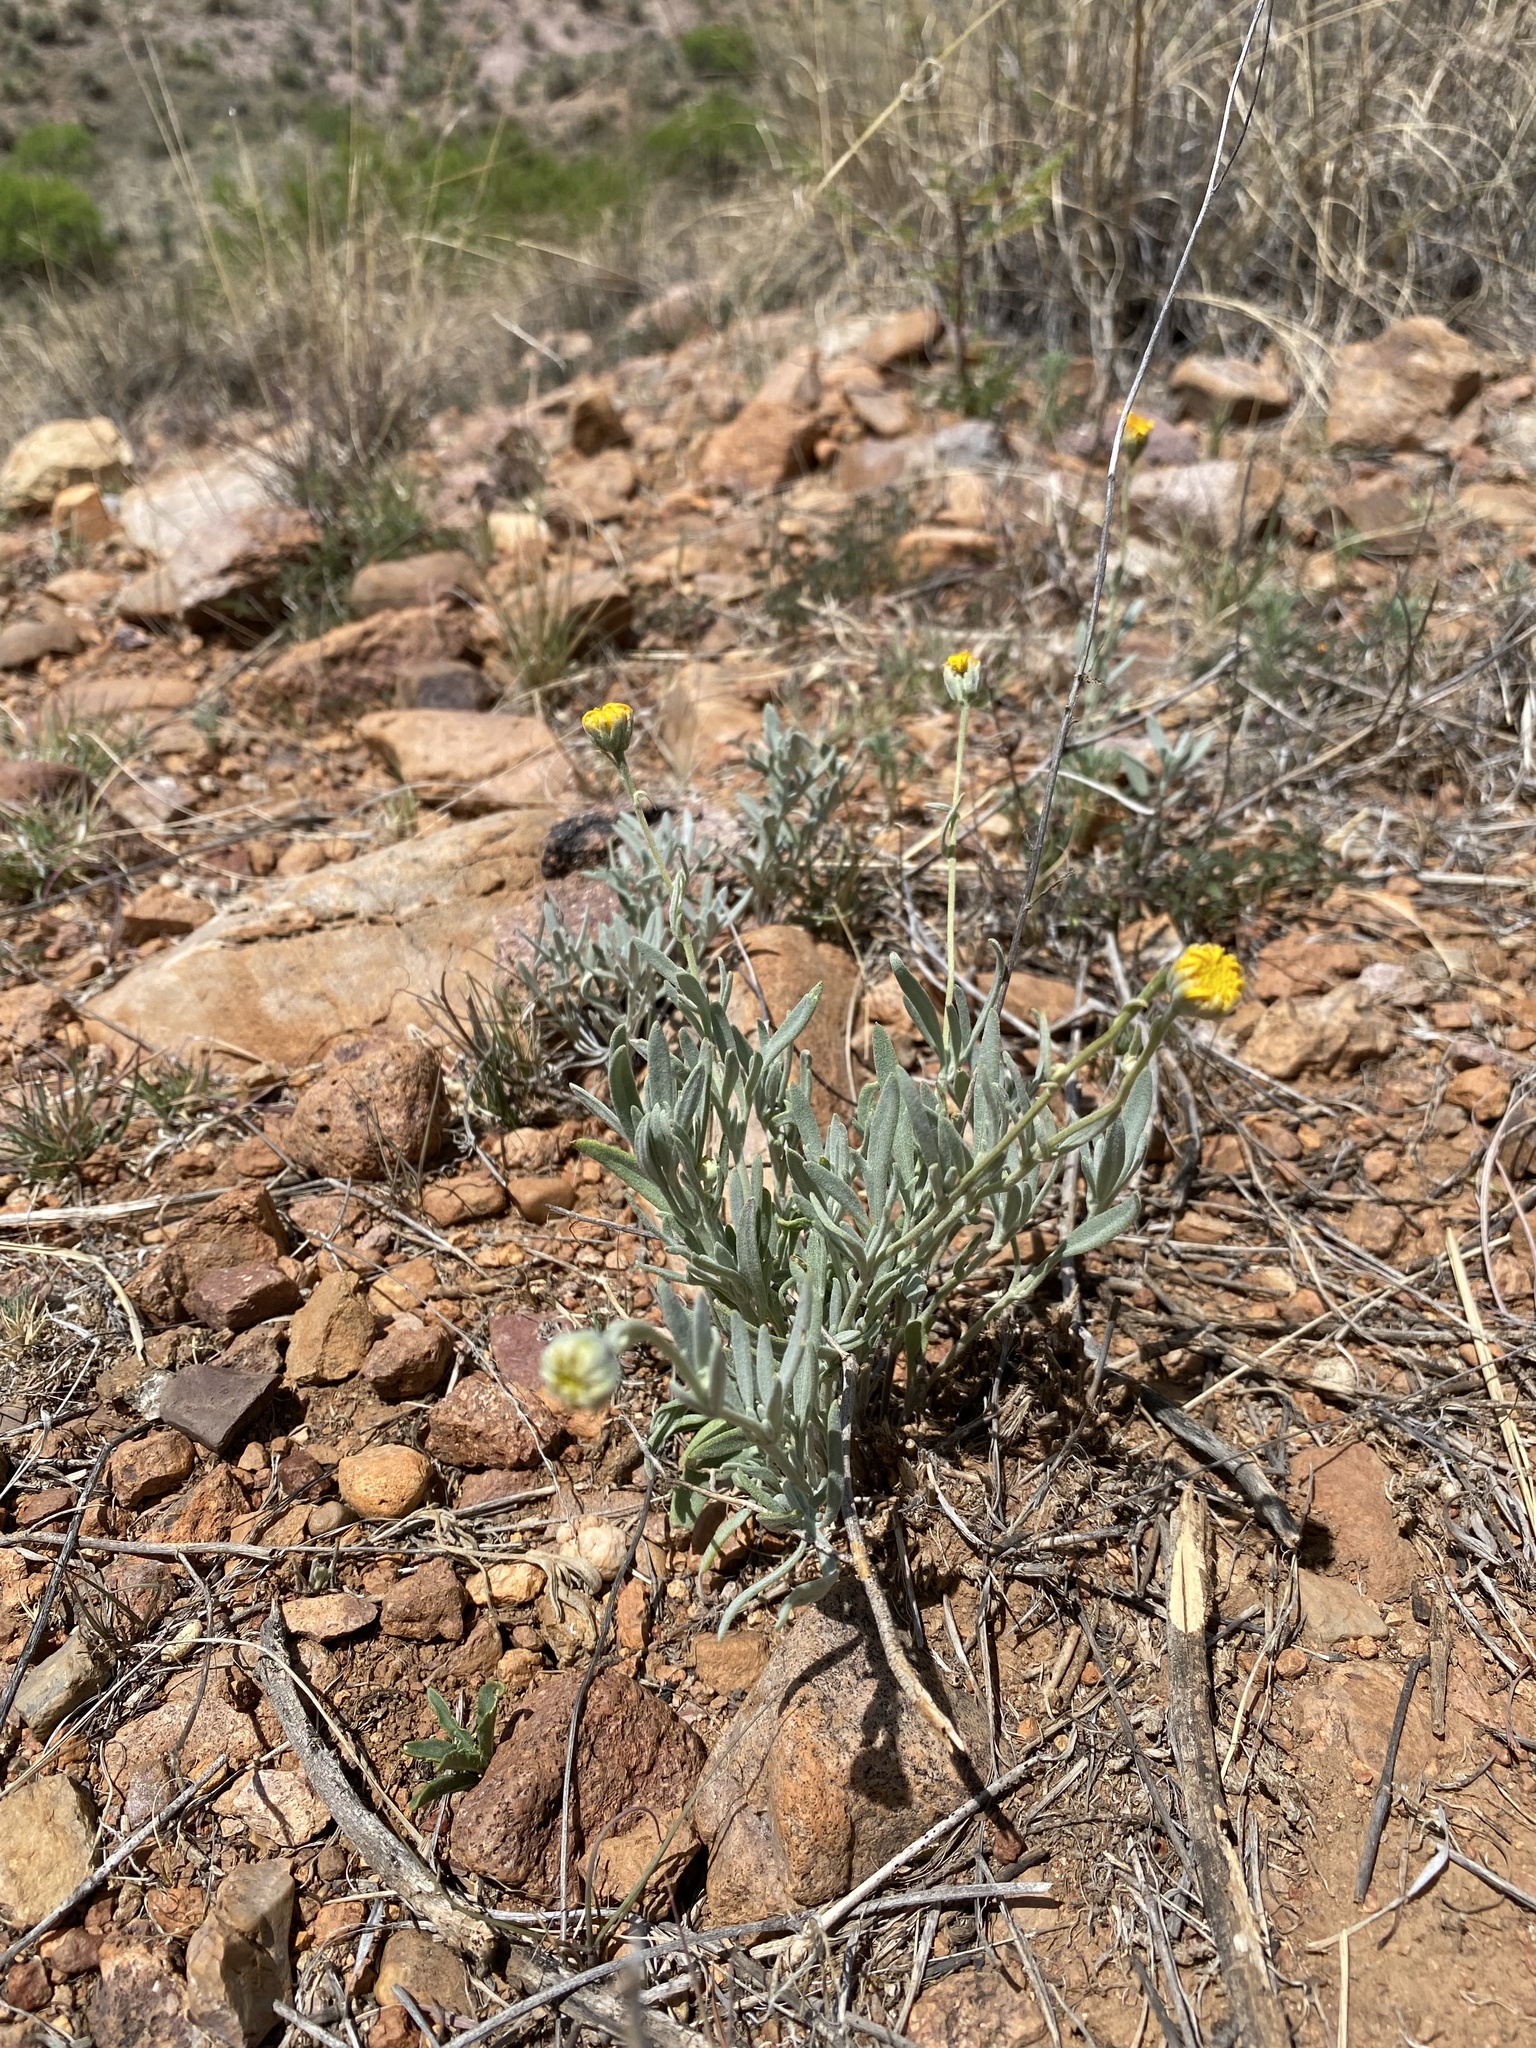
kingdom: Plantae
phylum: Tracheophyta
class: Magnoliopsida
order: Asterales
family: Asteraceae
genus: Picradeniopsis
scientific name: Picradeniopsis absinthifolia
